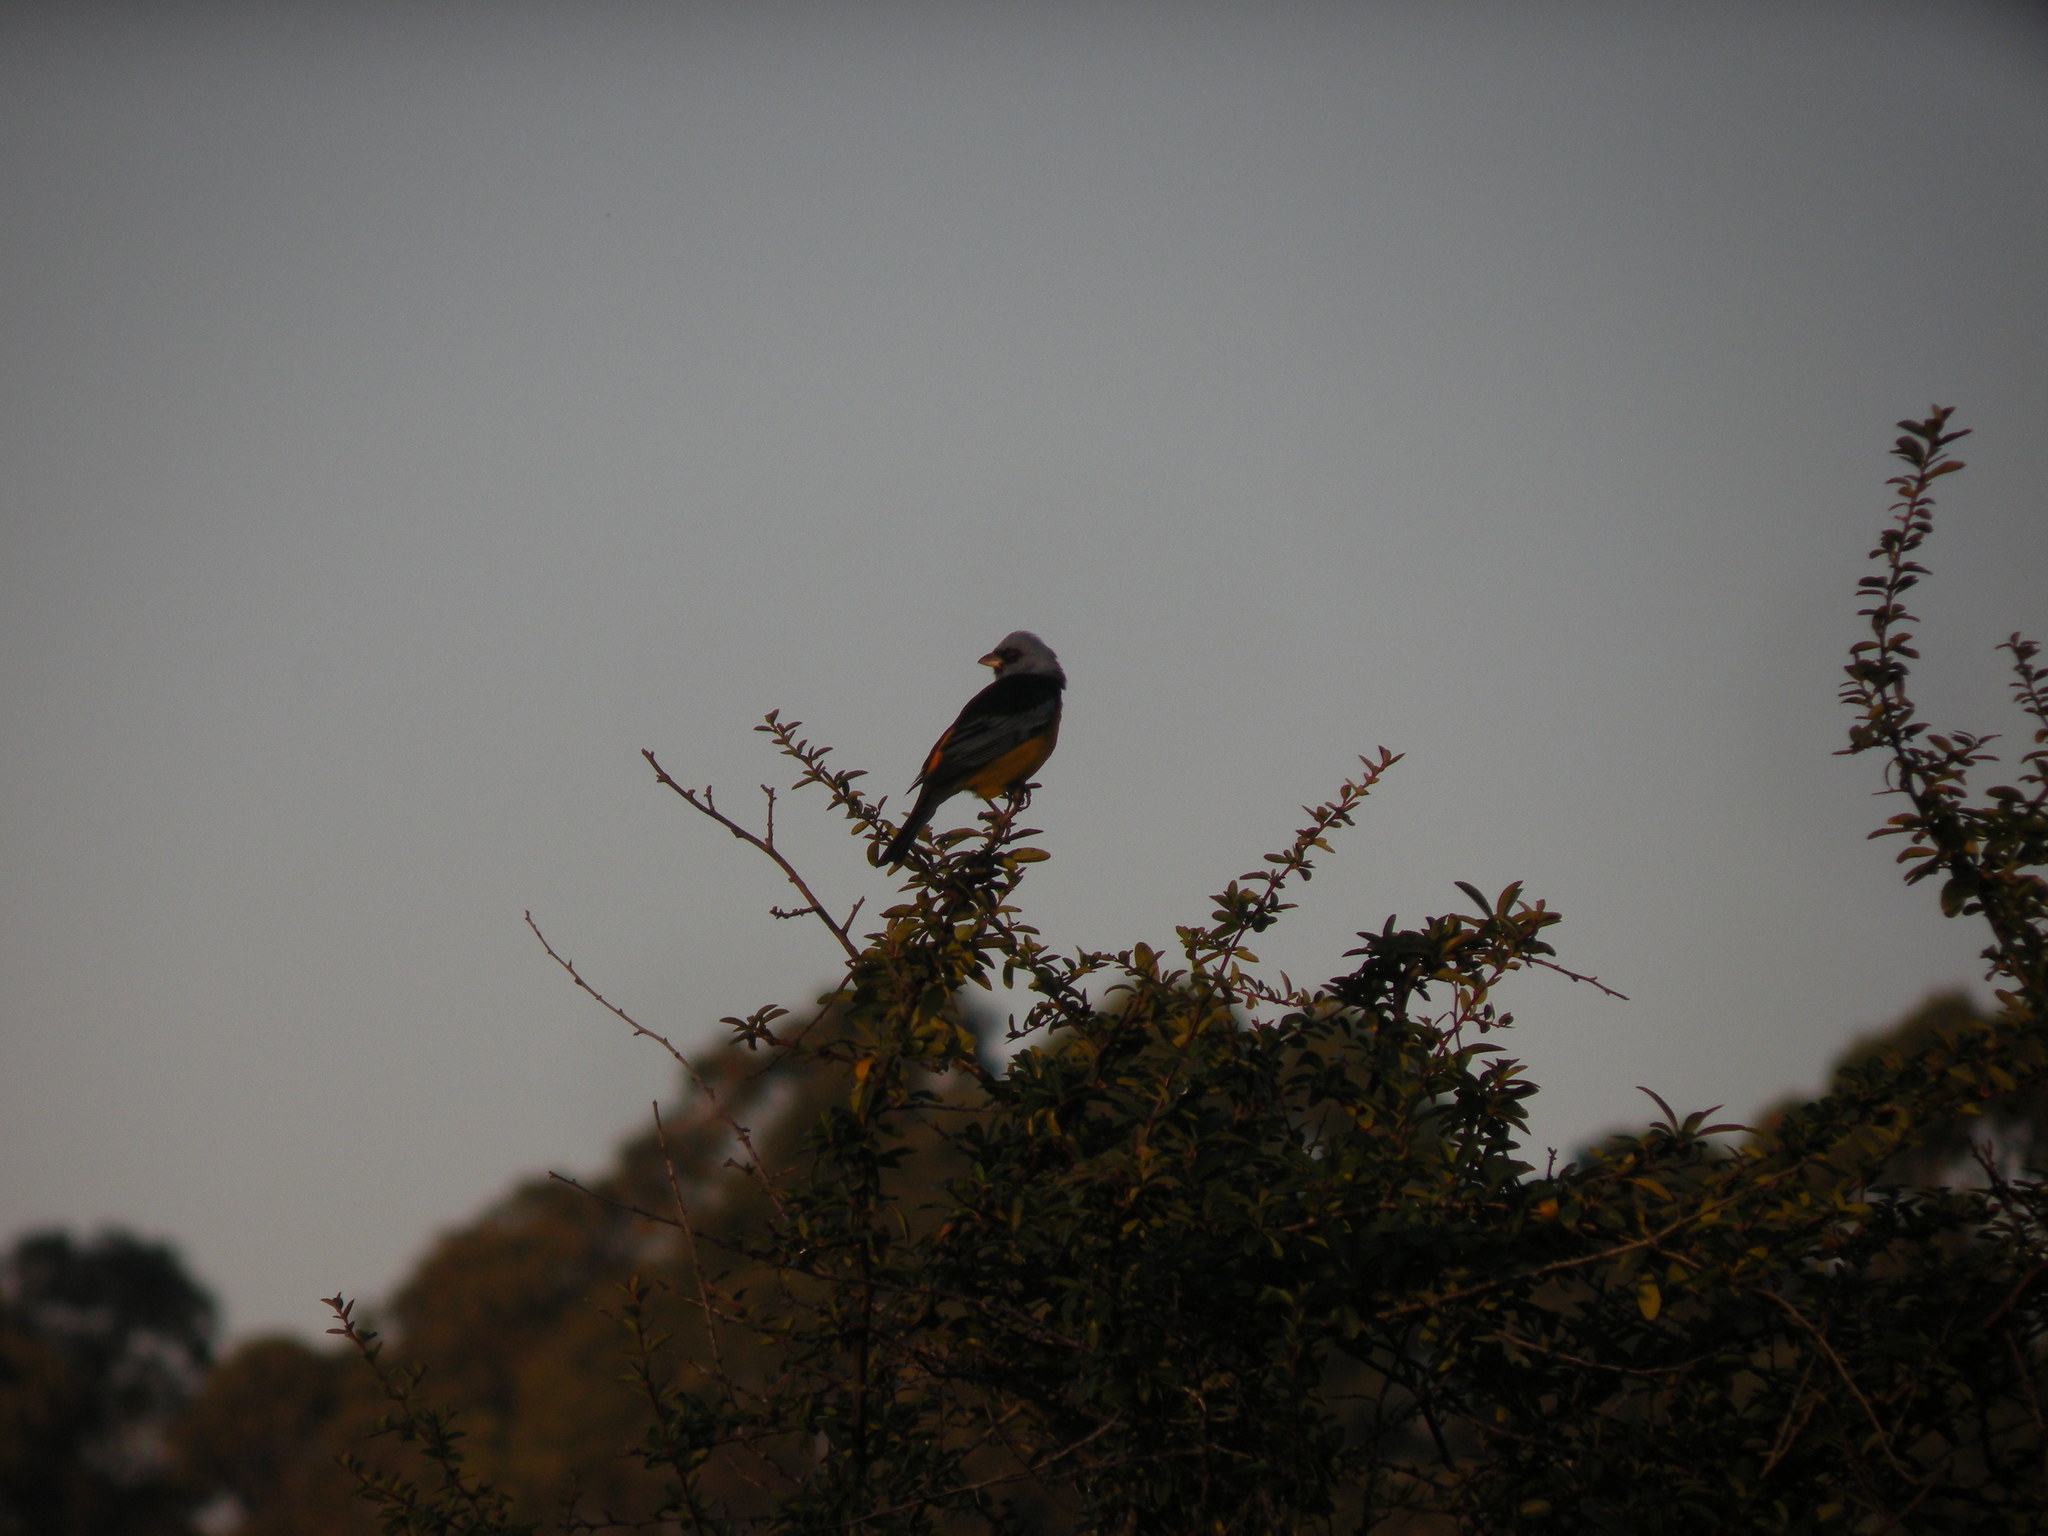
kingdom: Animalia
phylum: Chordata
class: Aves
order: Passeriformes
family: Thraupidae
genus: Rauenia
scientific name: Rauenia bonariensis
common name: Blue-and-yellow tanager
